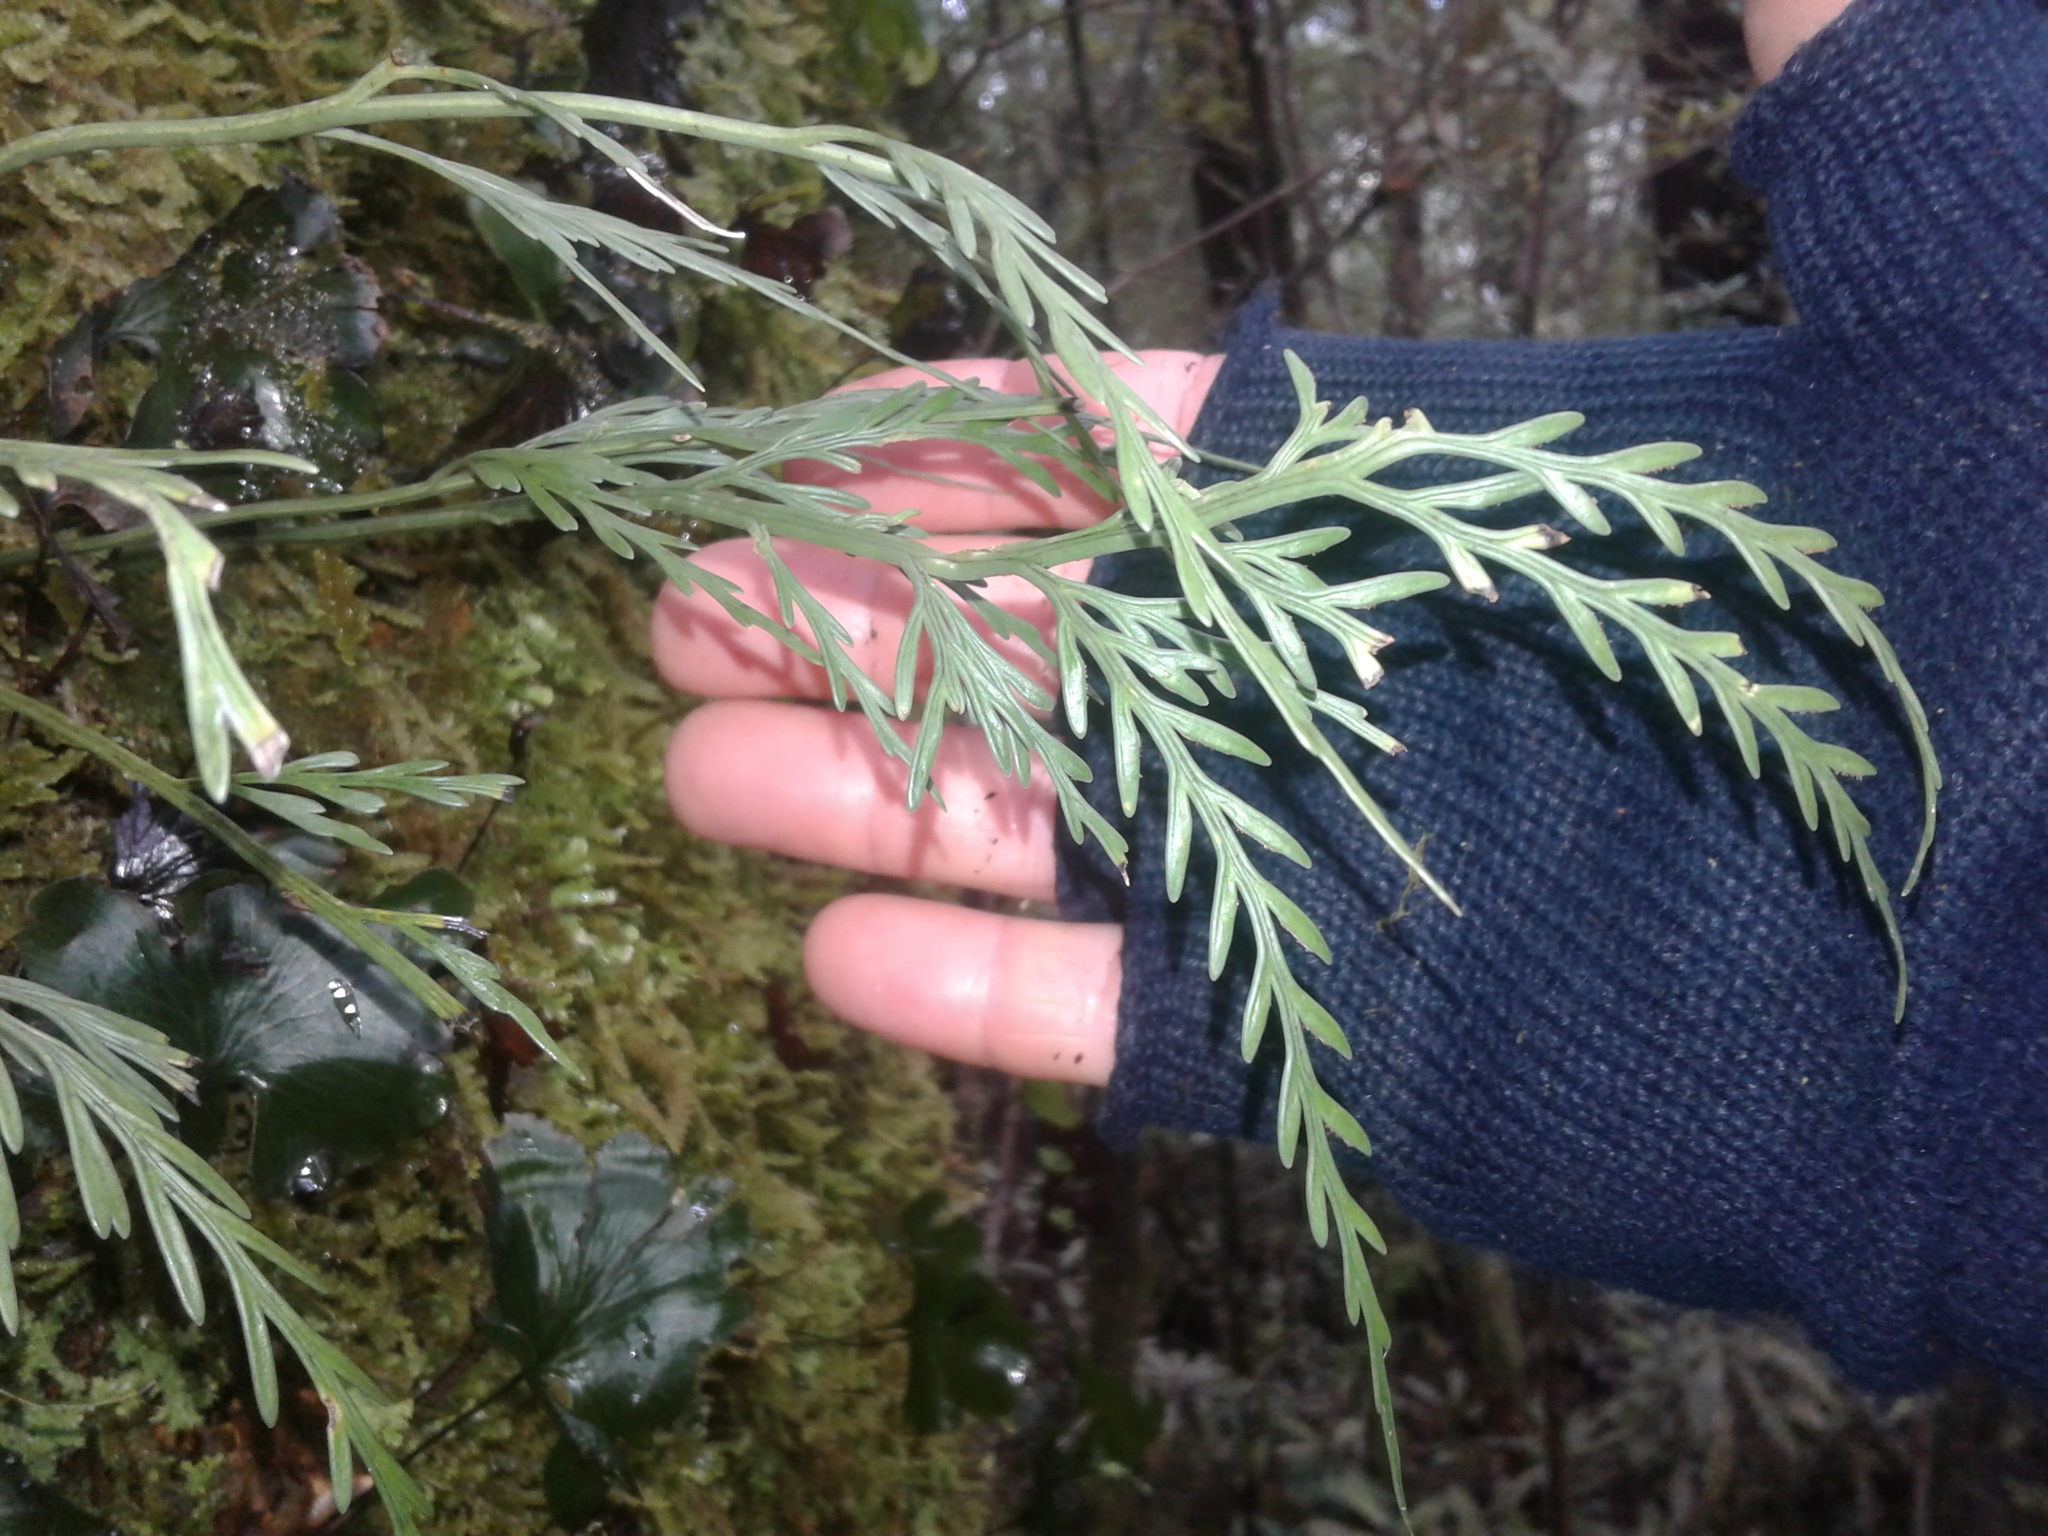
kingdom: Plantae
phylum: Tracheophyta
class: Polypodiopsida
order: Polypodiales
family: Aspleniaceae
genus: Asplenium
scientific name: Asplenium flaccidum
